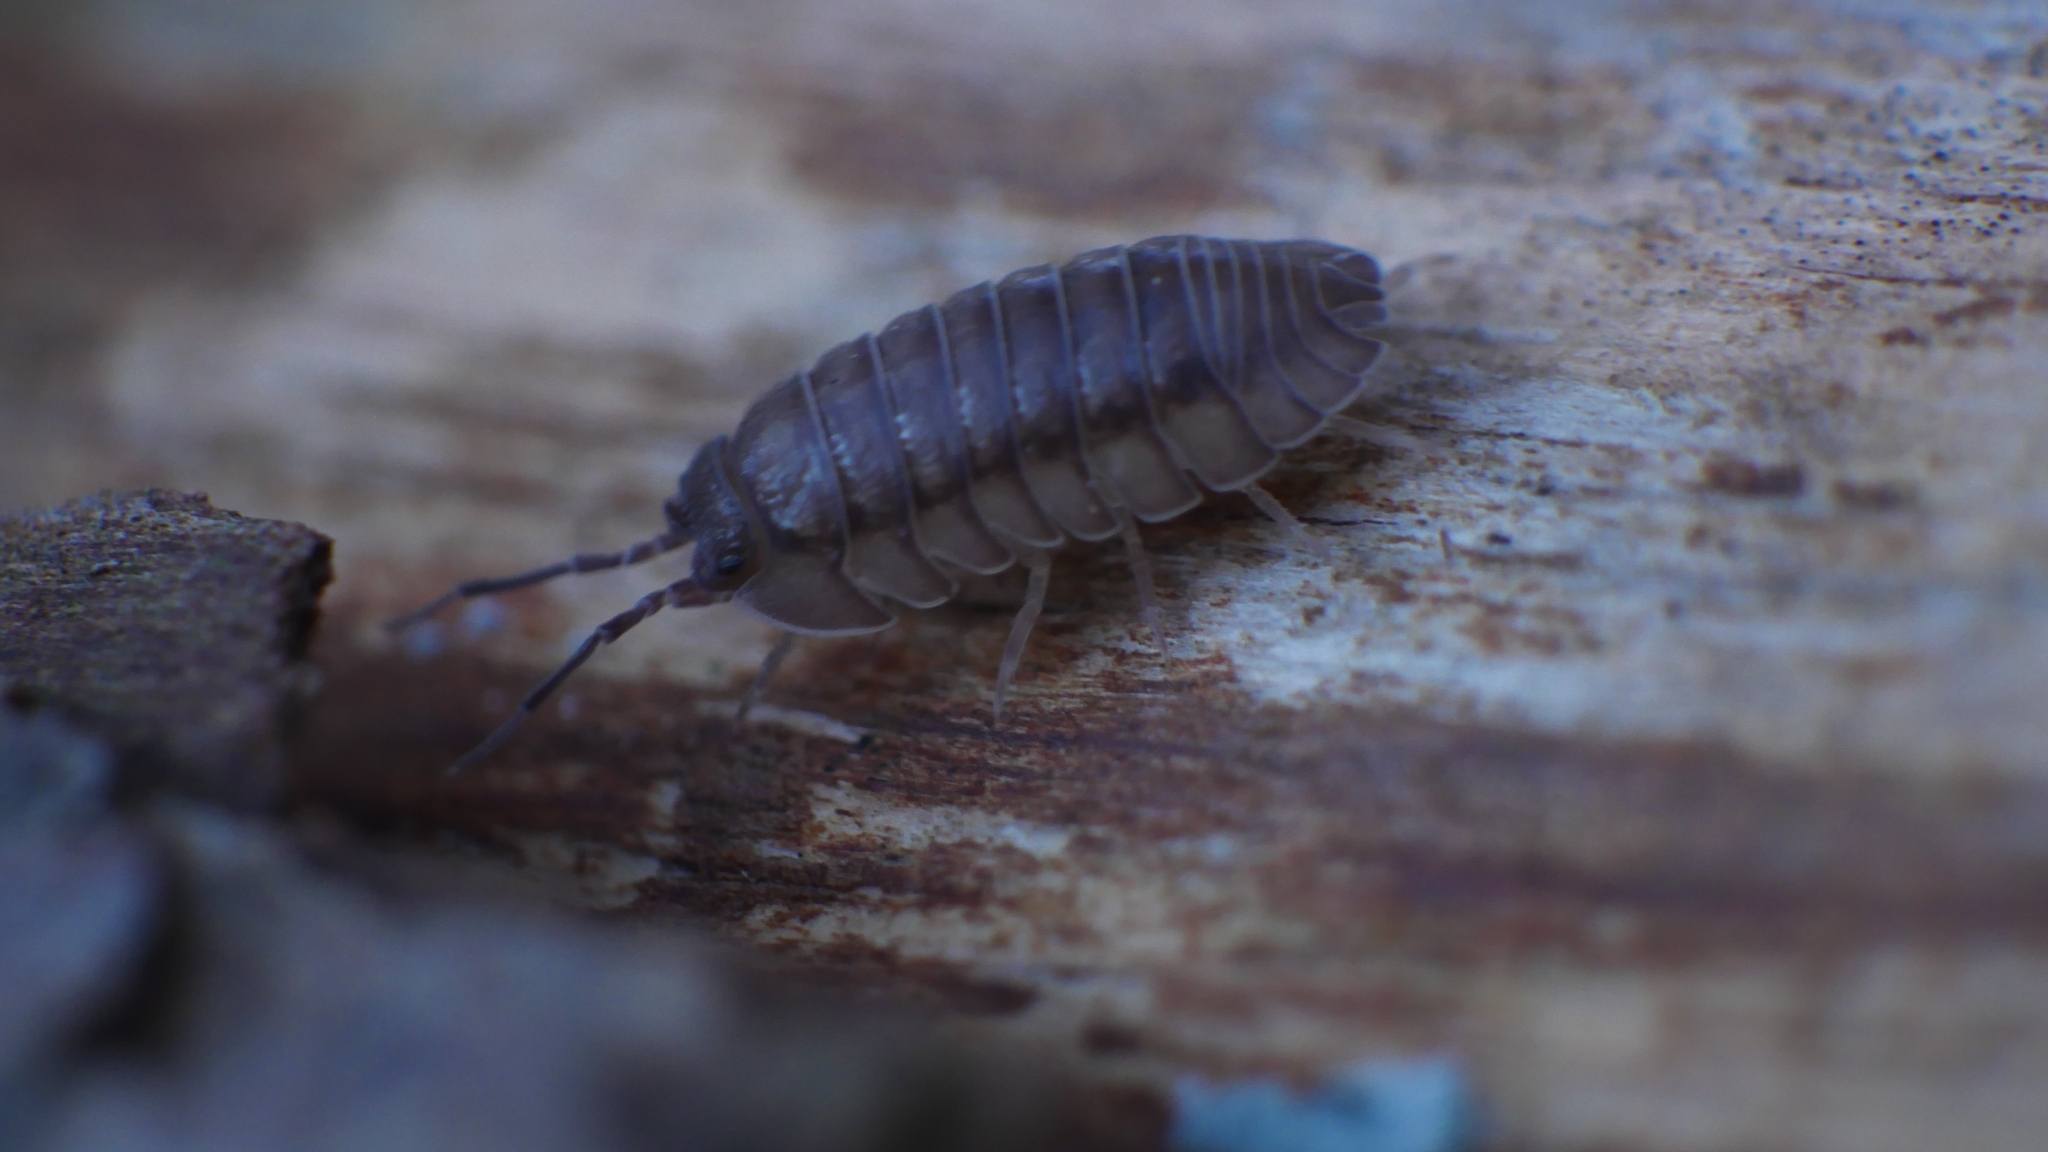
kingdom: Animalia
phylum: Arthropoda
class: Malacostraca
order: Isopoda
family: Armadillidiidae
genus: Armadillidium
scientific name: Armadillidium nasatum
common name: Isopod
